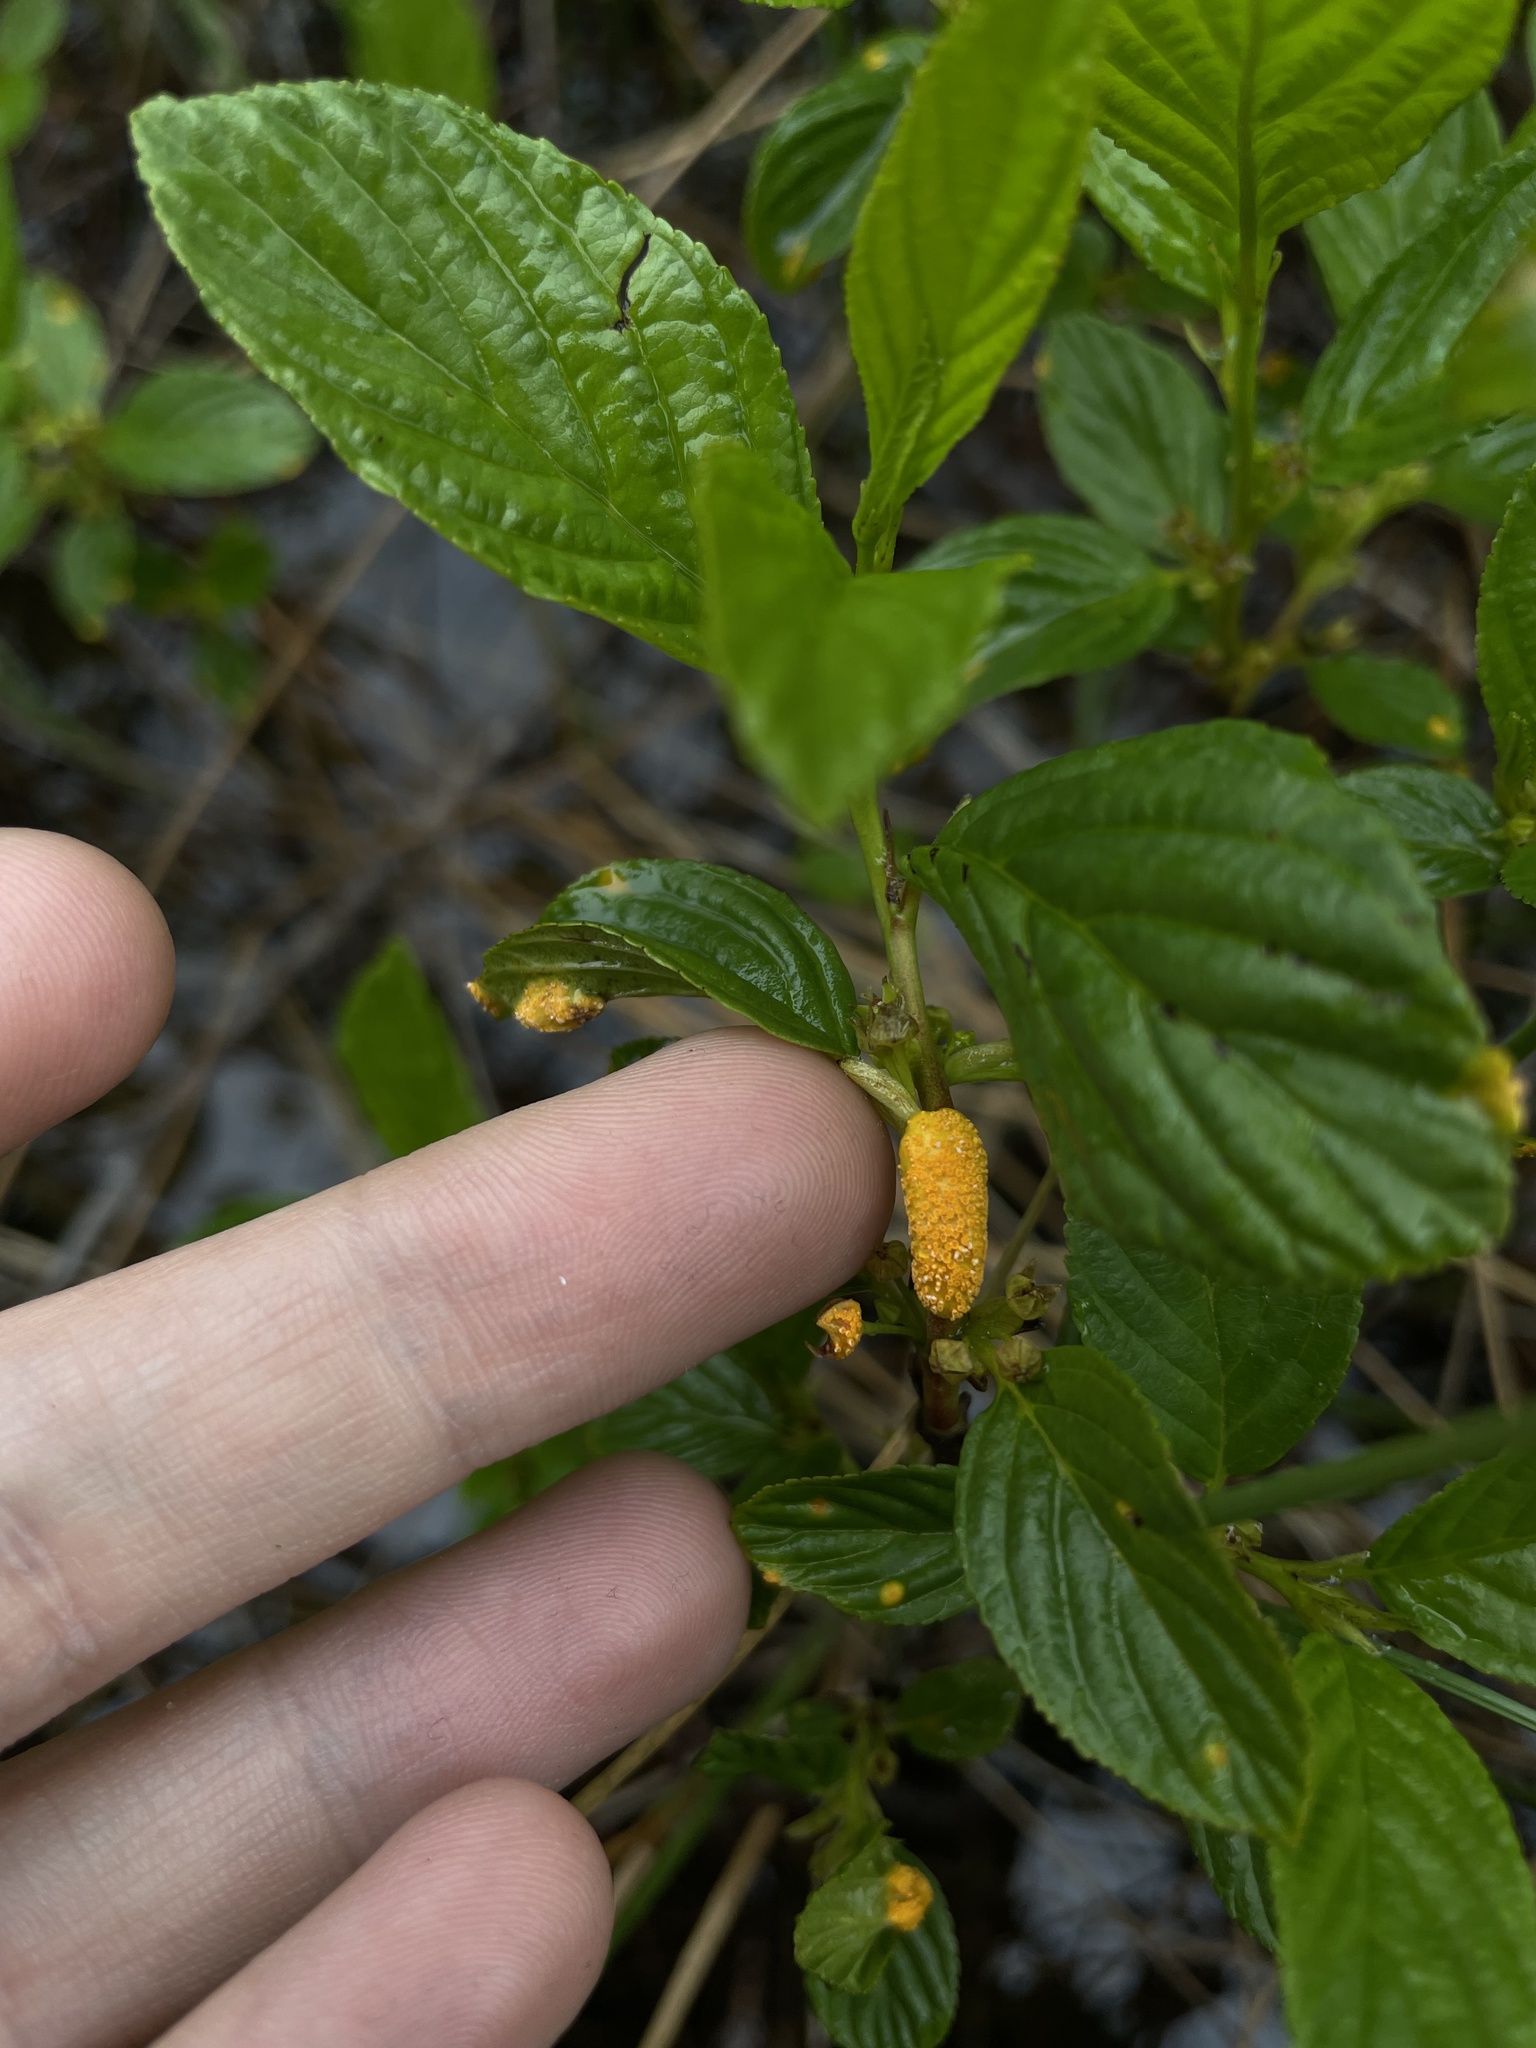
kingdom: Fungi
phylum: Basidiomycota
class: Pucciniomycetes
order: Pucciniales
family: Pucciniaceae
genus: Puccinia
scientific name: Puccinia coronata
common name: Crown rust
